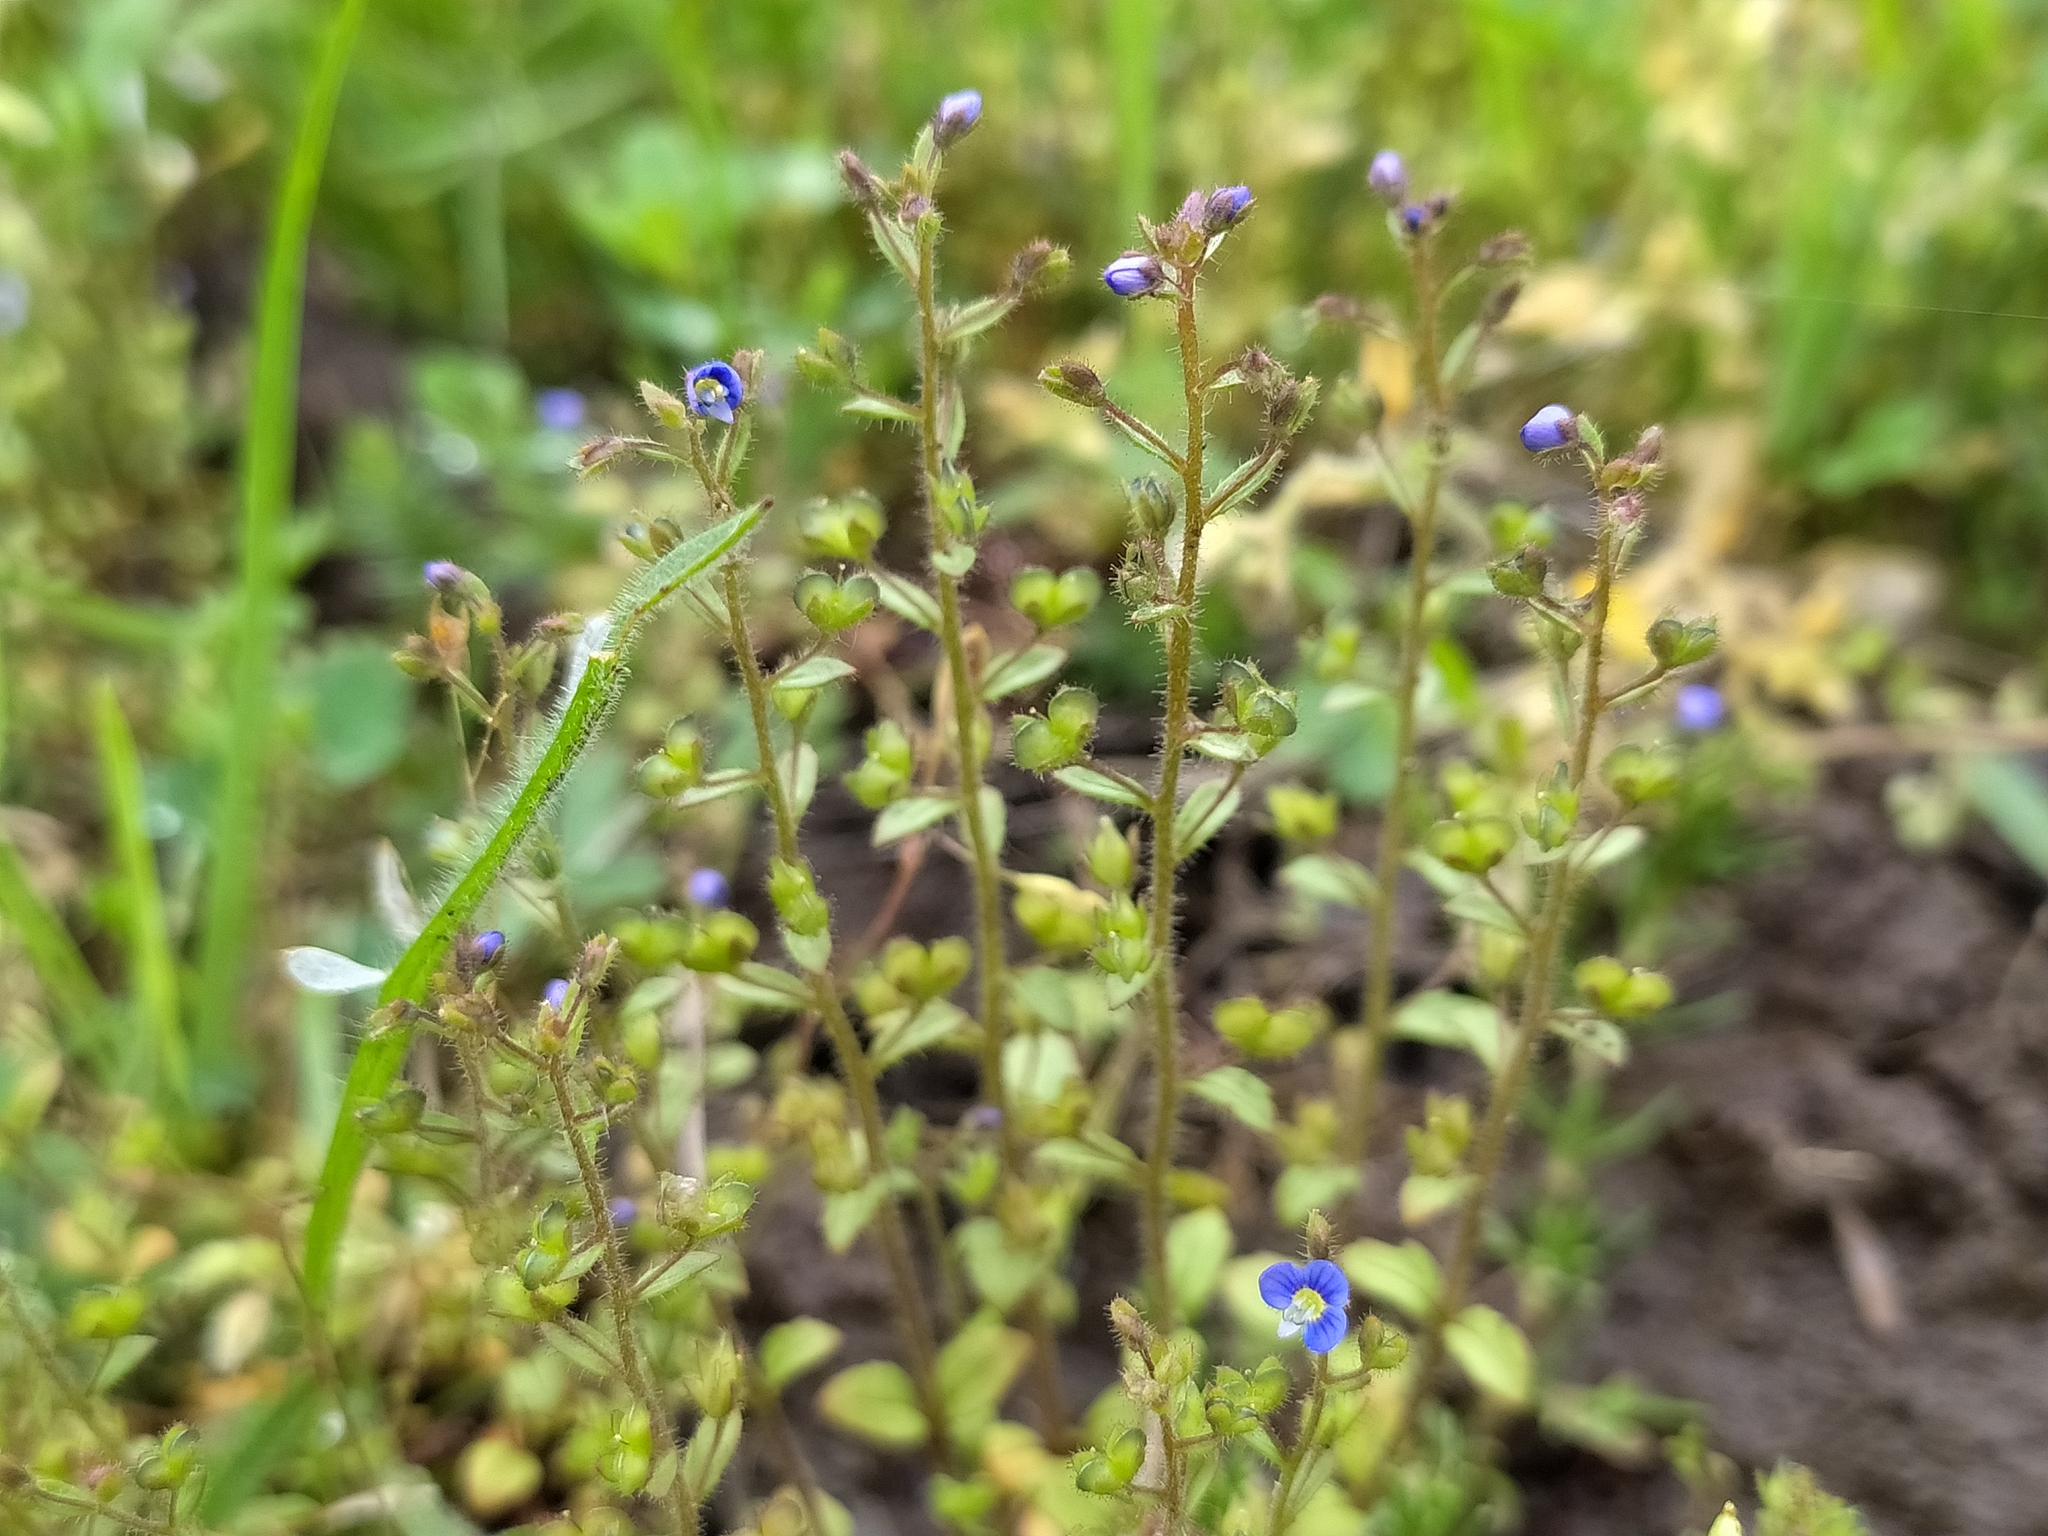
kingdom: Plantae
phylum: Tracheophyta
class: Magnoliopsida
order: Lamiales
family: Plantaginaceae
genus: Veronica
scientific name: Veronica acinifolia
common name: French speedwell
